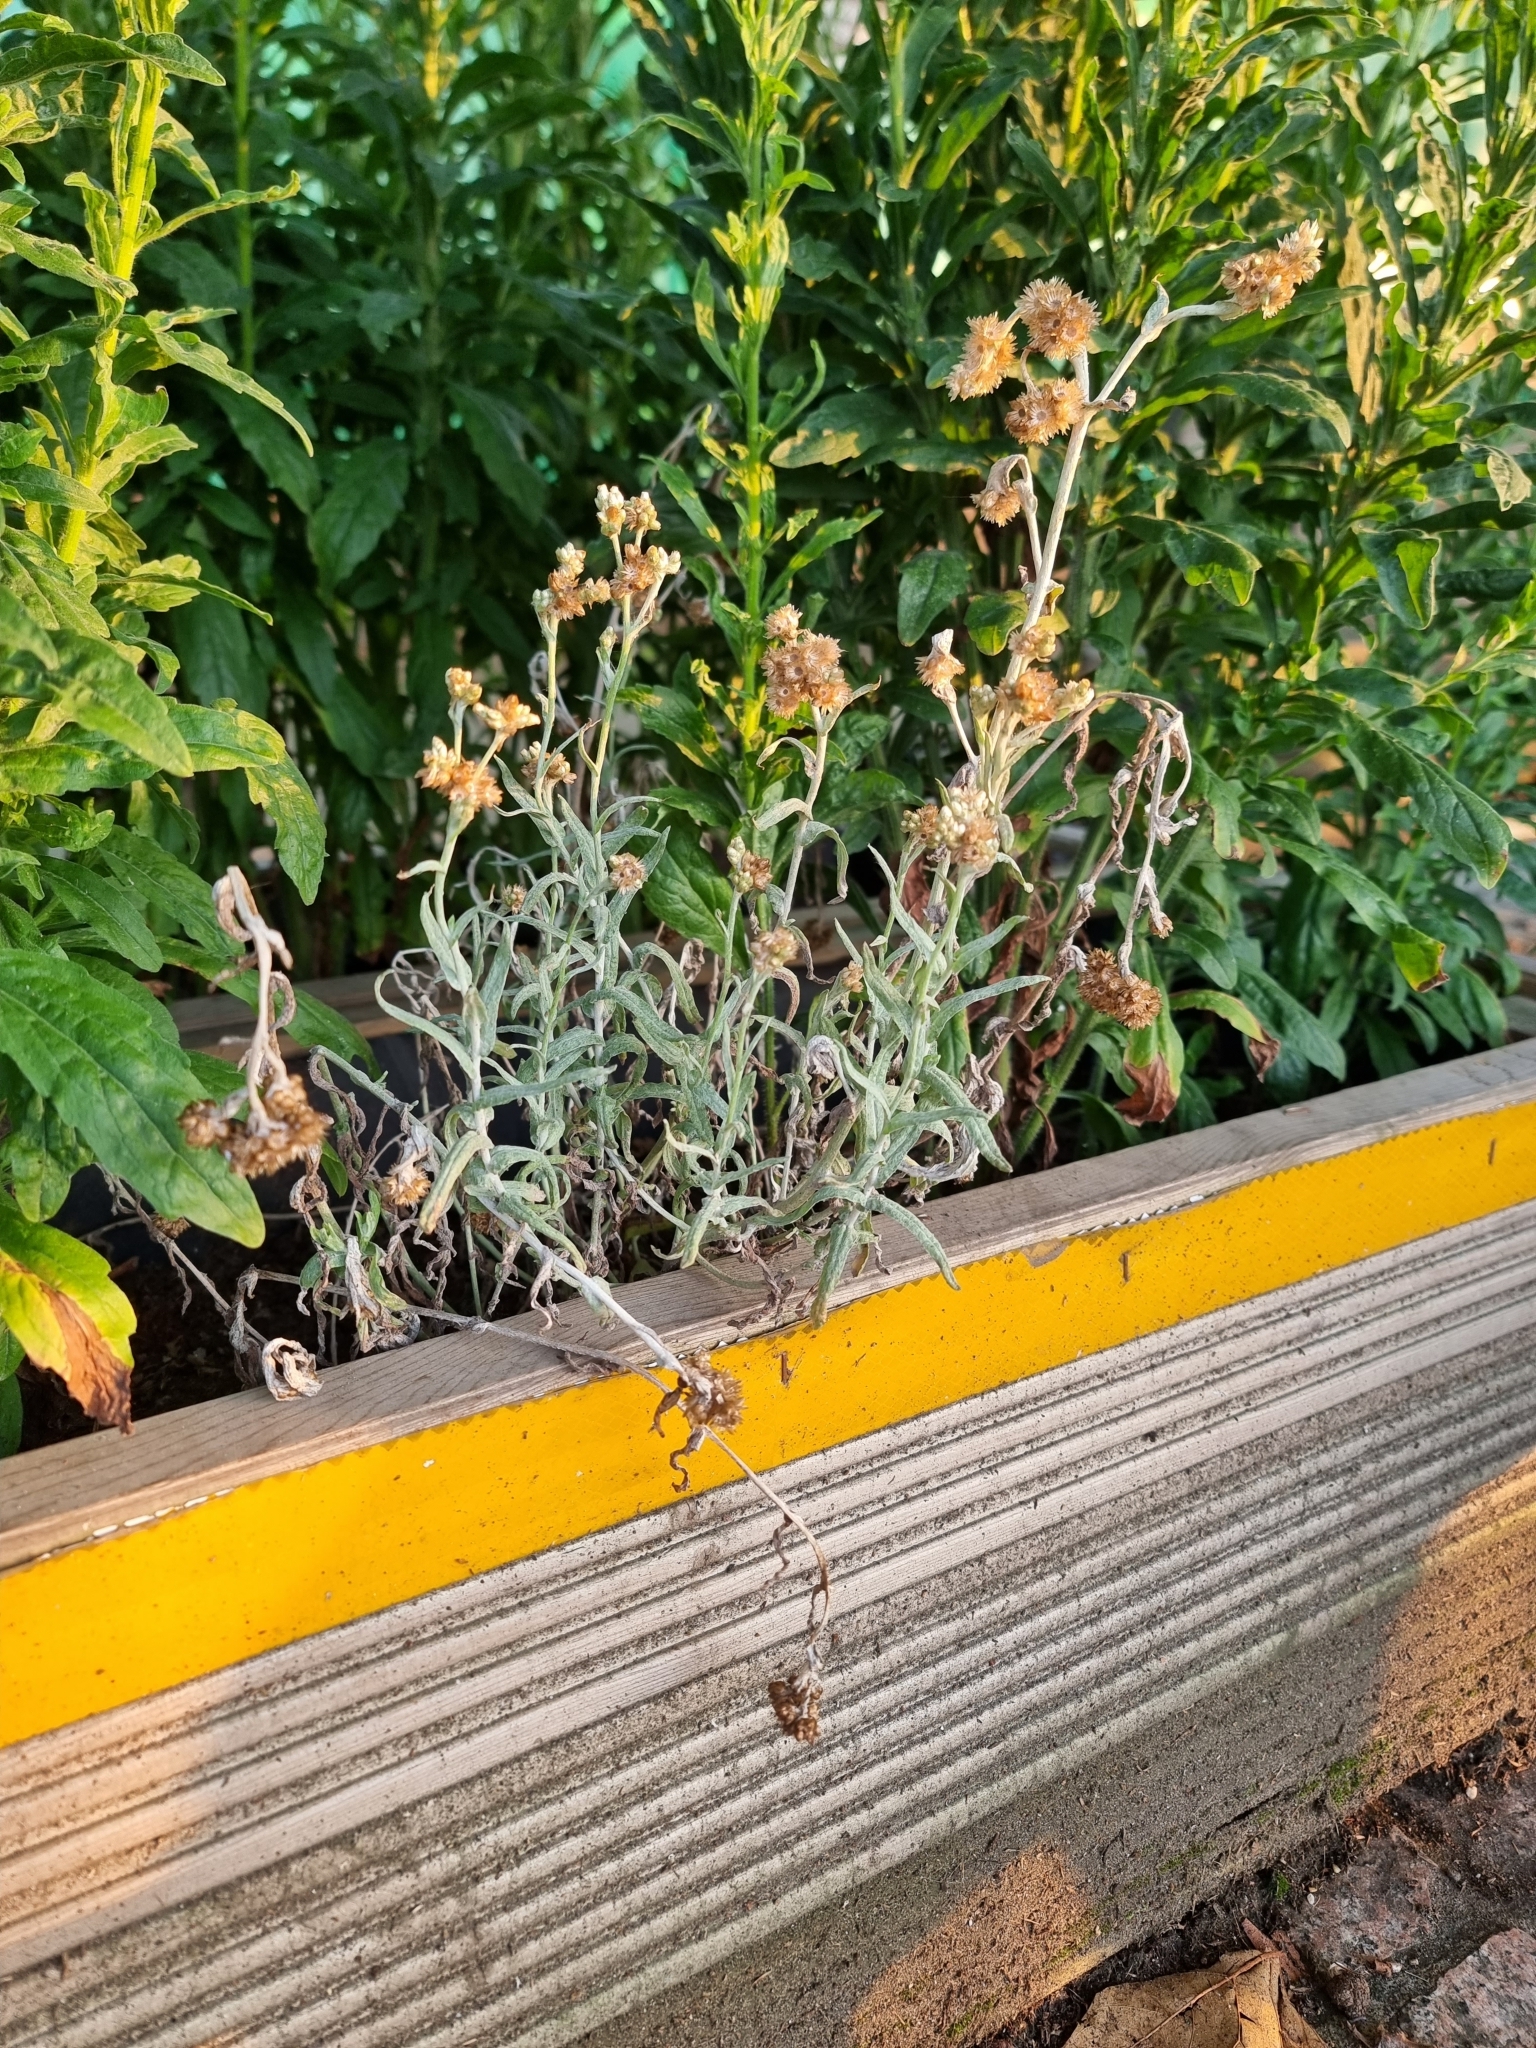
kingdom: Plantae
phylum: Tracheophyta
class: Magnoliopsida
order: Asterales
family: Asteraceae
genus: Helichrysum
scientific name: Helichrysum luteoalbum
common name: Daisy
